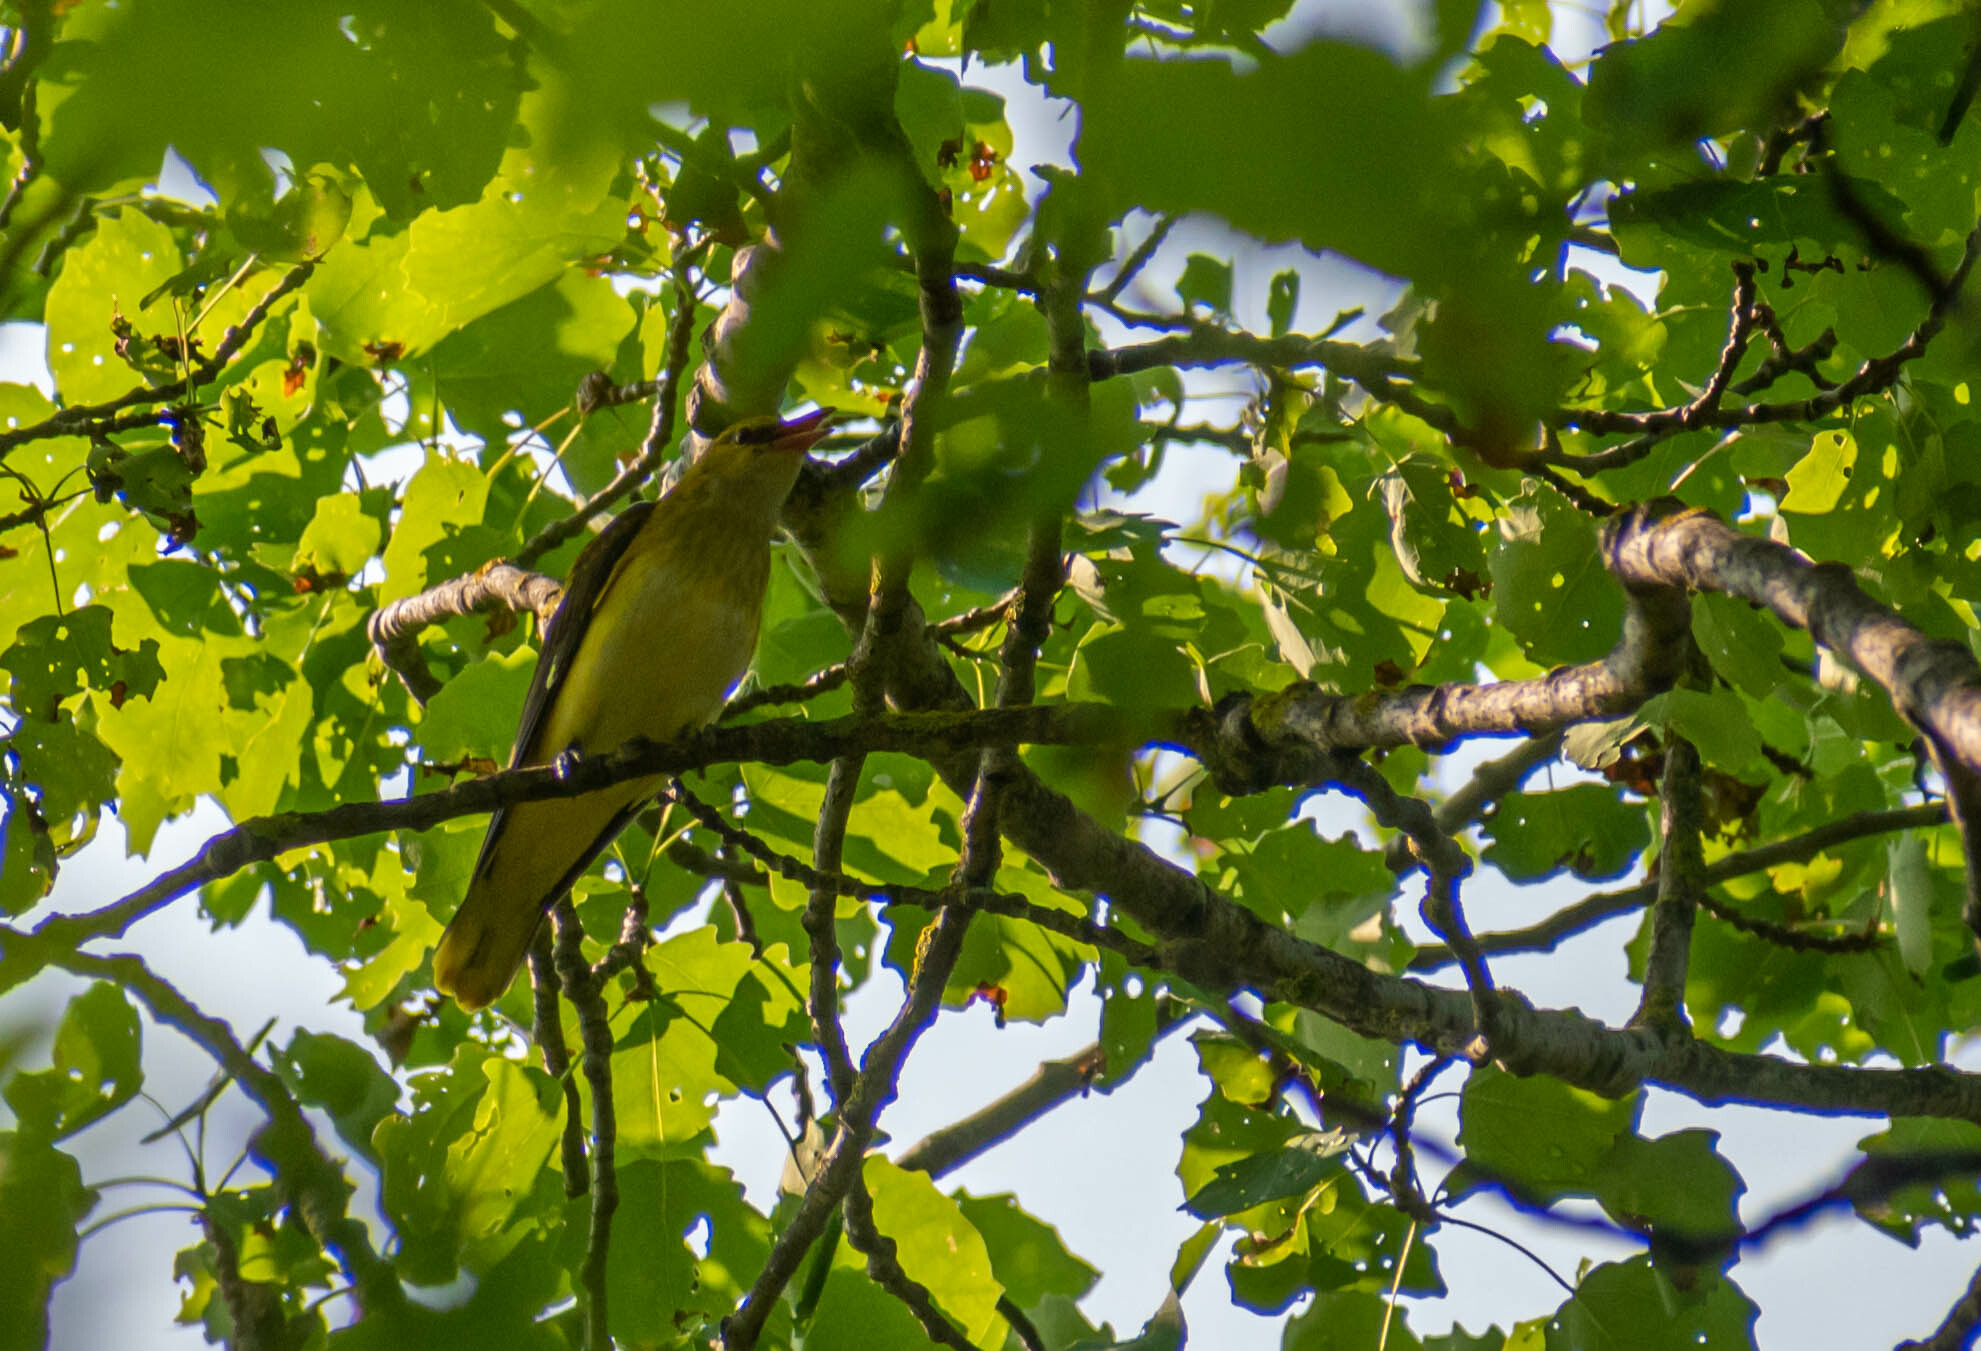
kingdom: Animalia
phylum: Chordata
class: Aves
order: Passeriformes
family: Oriolidae
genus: Oriolus
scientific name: Oriolus oriolus
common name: Eurasian golden oriole
